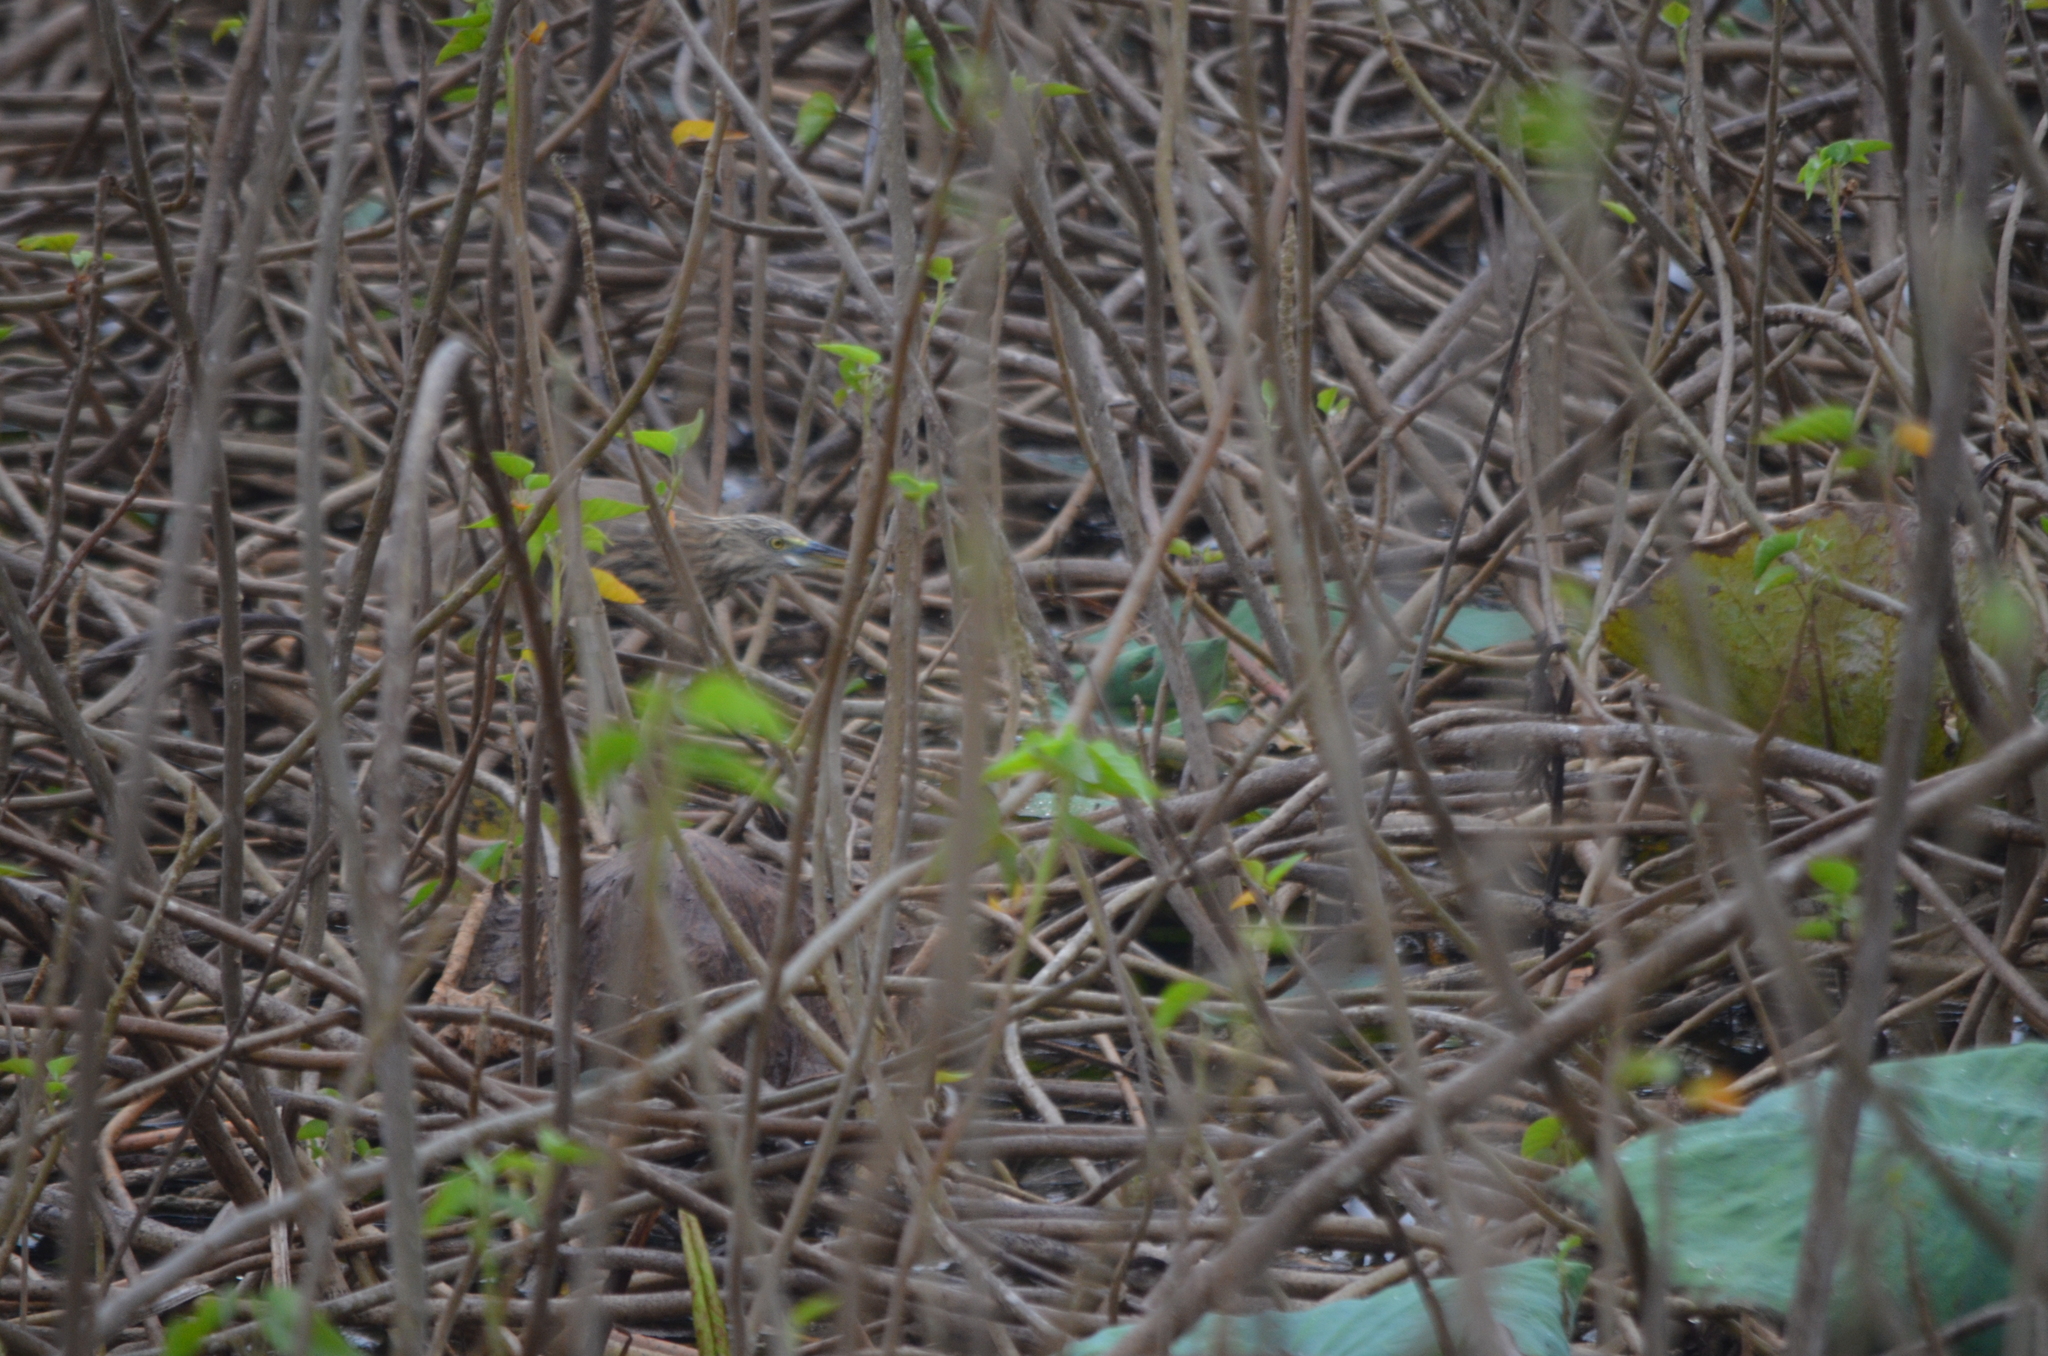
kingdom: Animalia
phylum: Chordata
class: Aves
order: Pelecaniformes
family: Ardeidae
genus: Ardeola
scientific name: Ardeola grayii
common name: Indian pond heron
